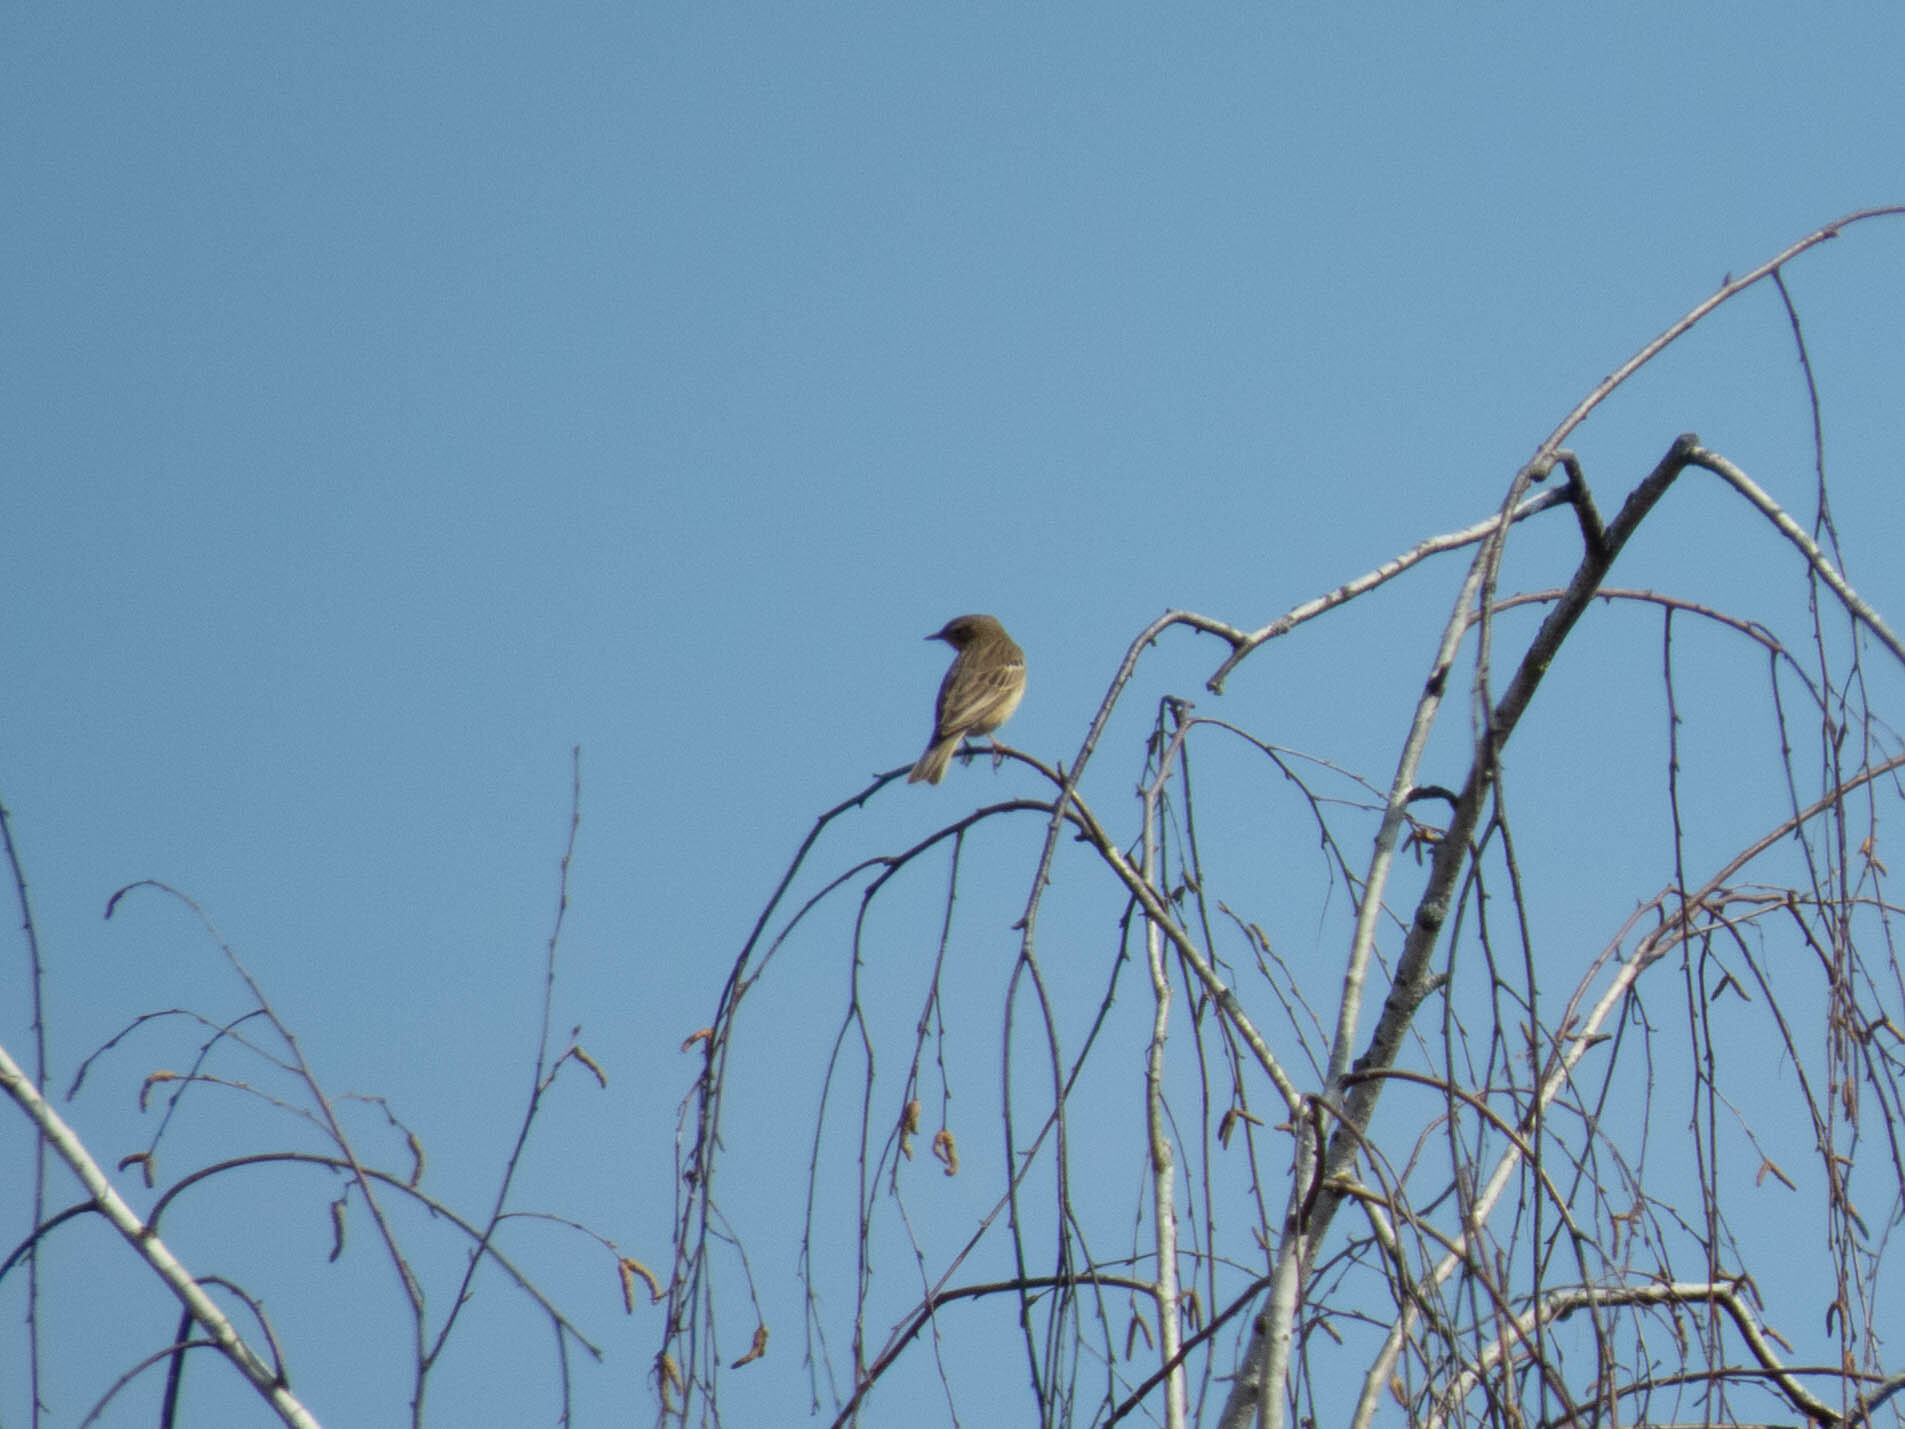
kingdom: Animalia
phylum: Chordata
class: Aves
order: Passeriformes
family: Motacillidae
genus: Anthus
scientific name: Anthus trivialis
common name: Tree pipit
